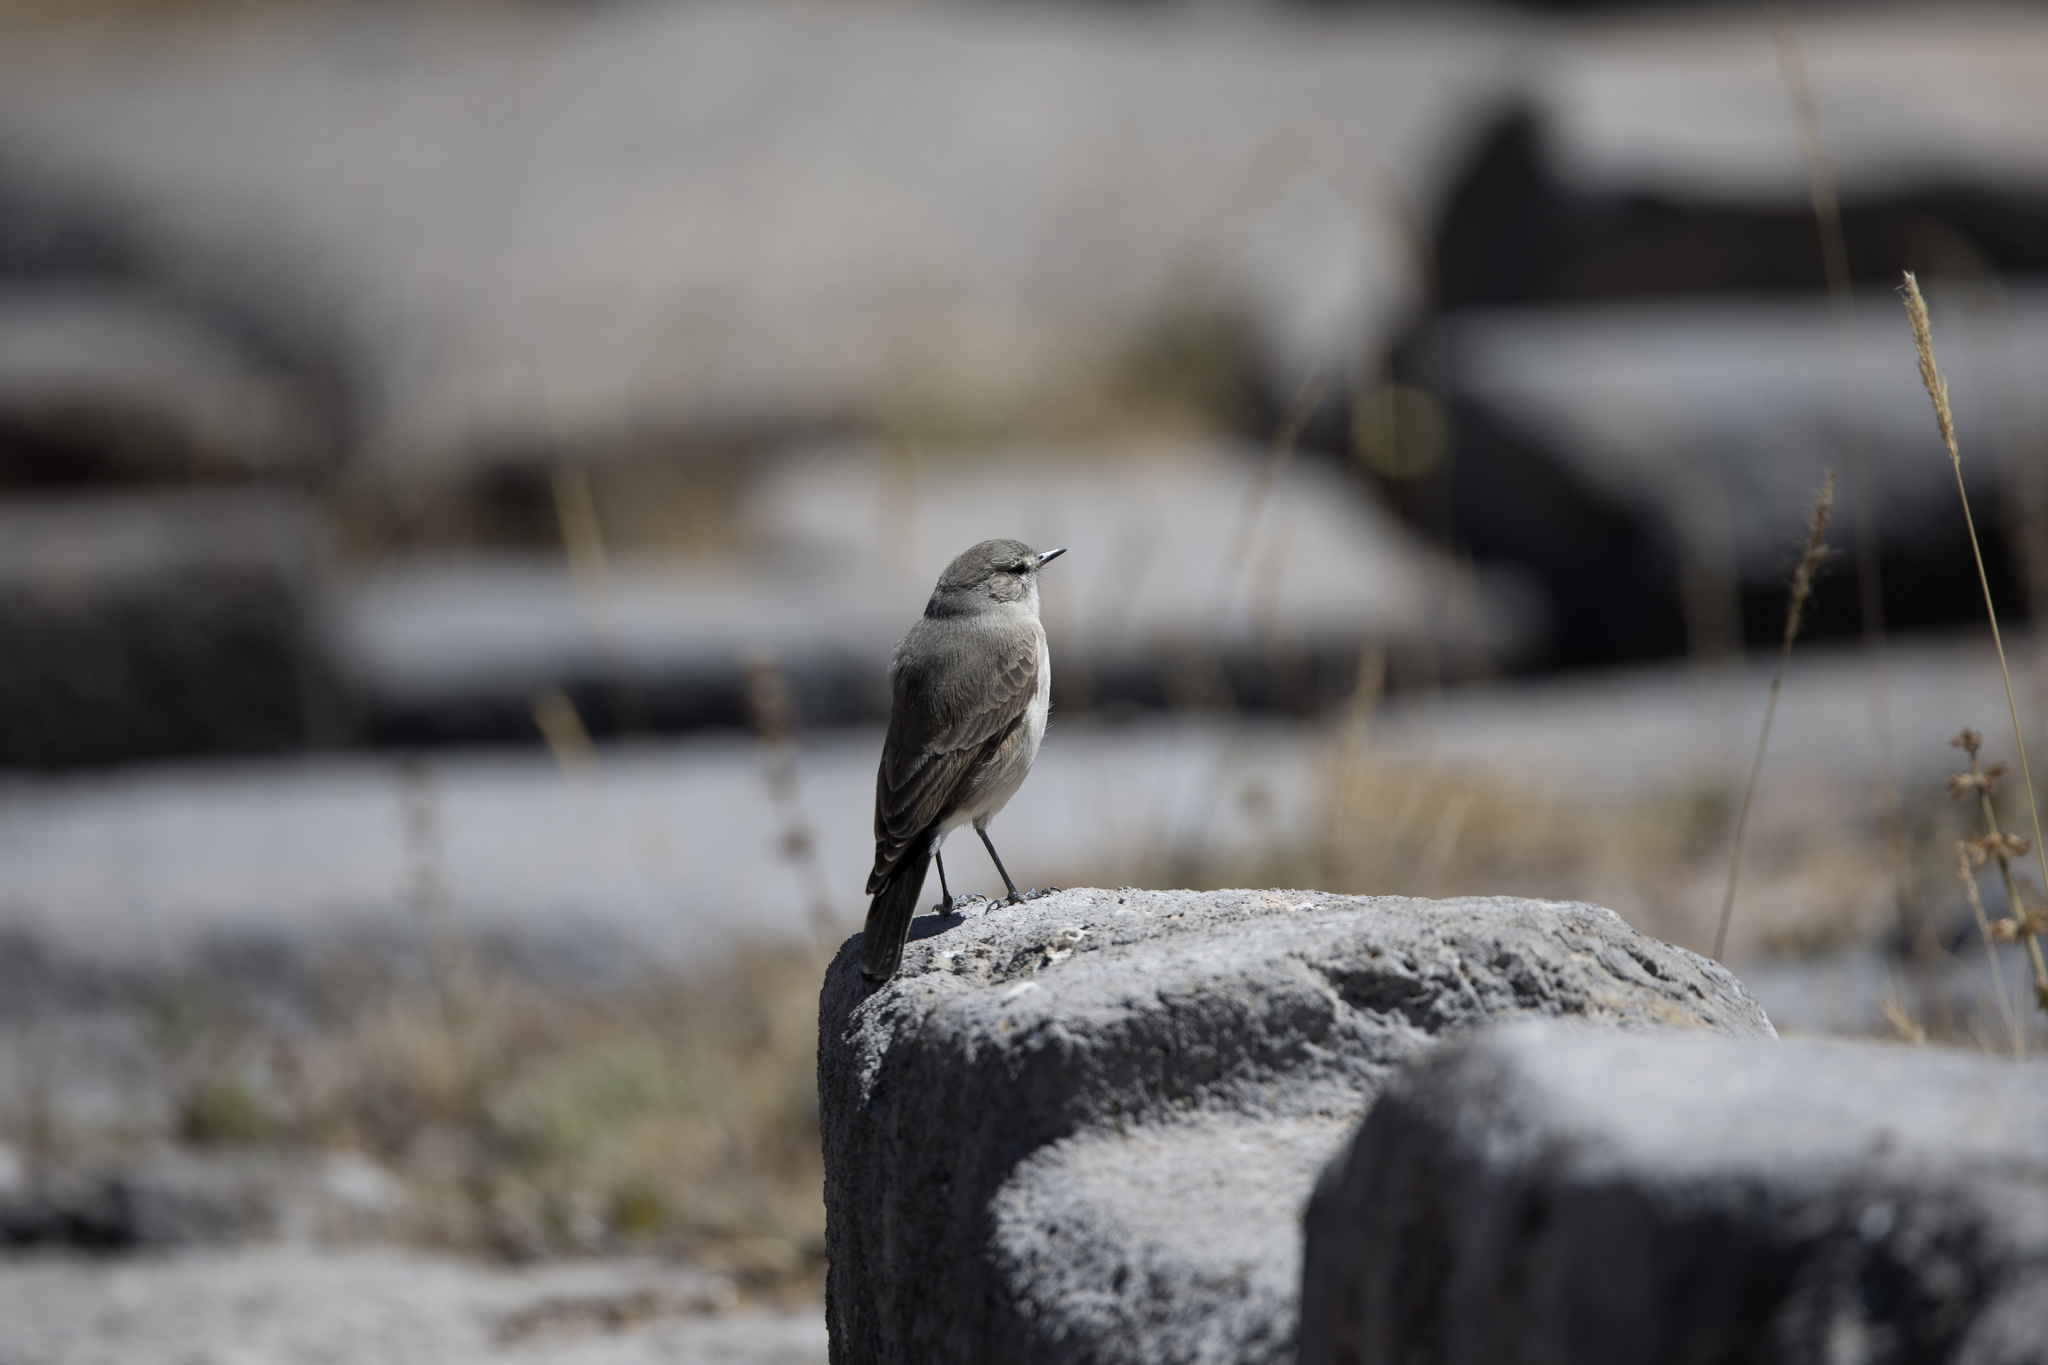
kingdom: Animalia
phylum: Chordata
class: Aves
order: Passeriformes
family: Tyrannidae
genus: Muscisaxicola
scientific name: Muscisaxicola maculirostris
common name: Spot-billed ground tyrant
